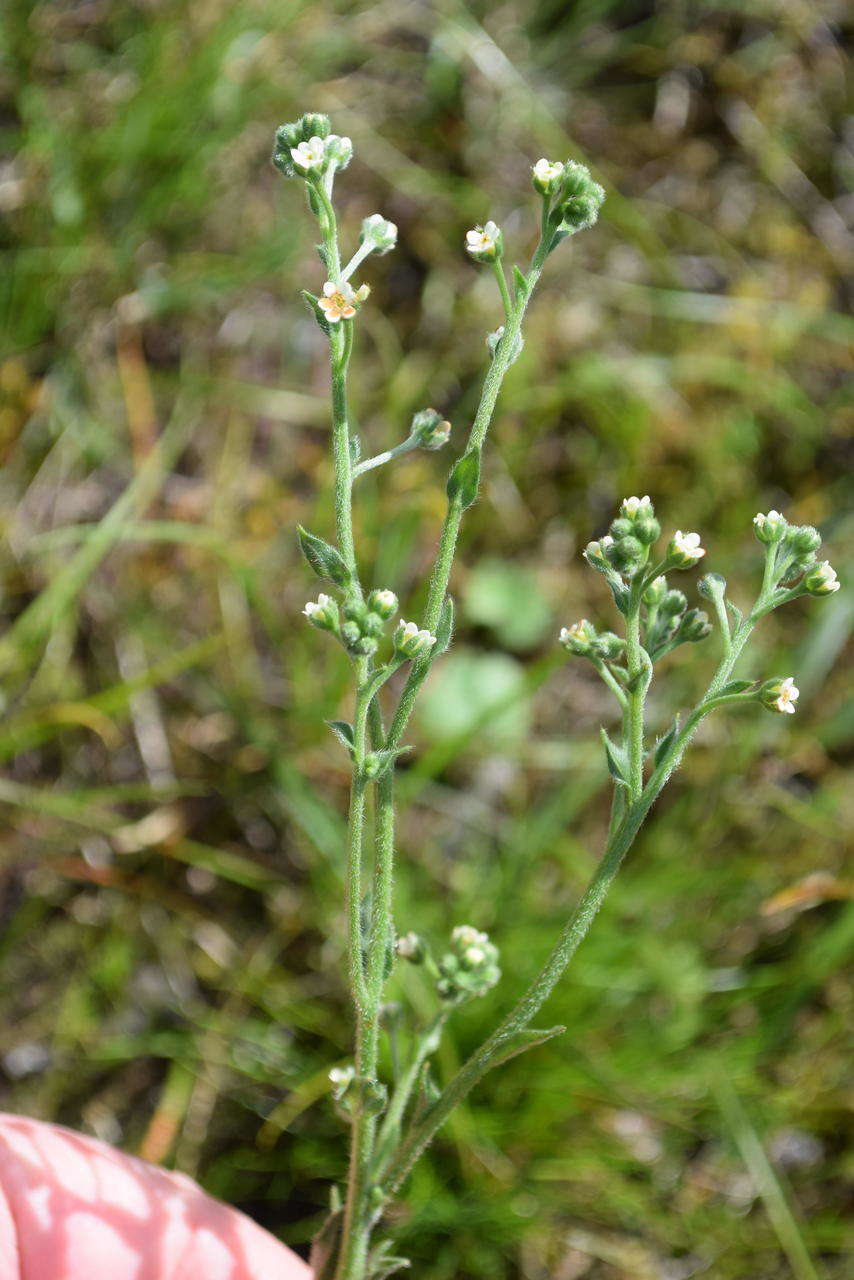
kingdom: Plantae
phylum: Tracheophyta
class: Magnoliopsida
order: Boraginales
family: Boraginaceae
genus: Hackelia
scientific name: Hackelia suaveolens
